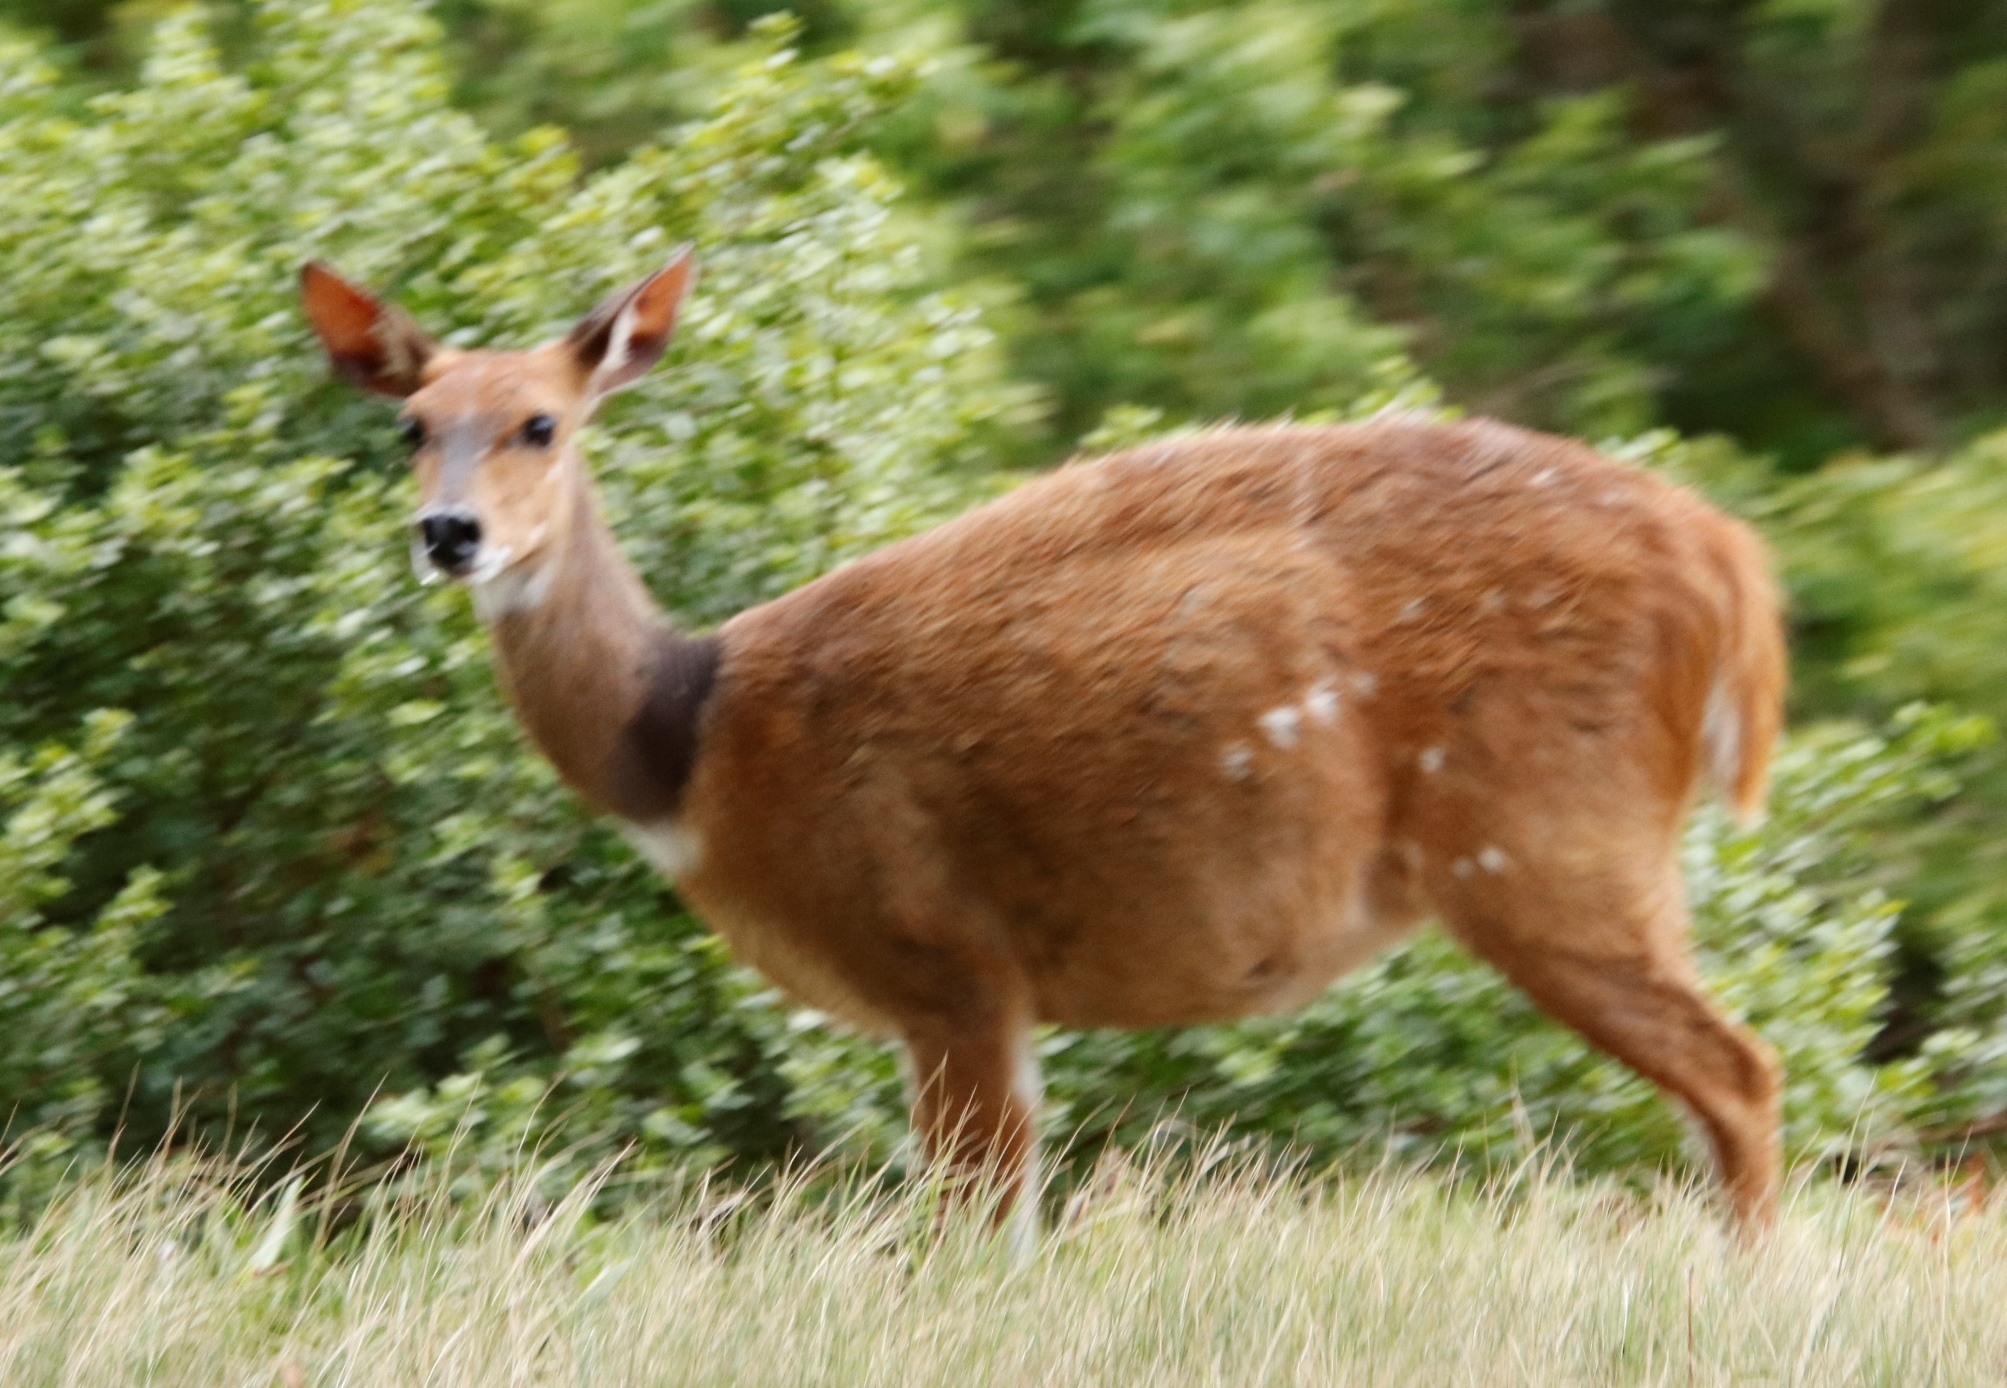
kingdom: Animalia
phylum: Chordata
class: Mammalia
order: Artiodactyla
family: Bovidae
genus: Tragelaphus
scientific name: Tragelaphus scriptus
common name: Bushbuck
